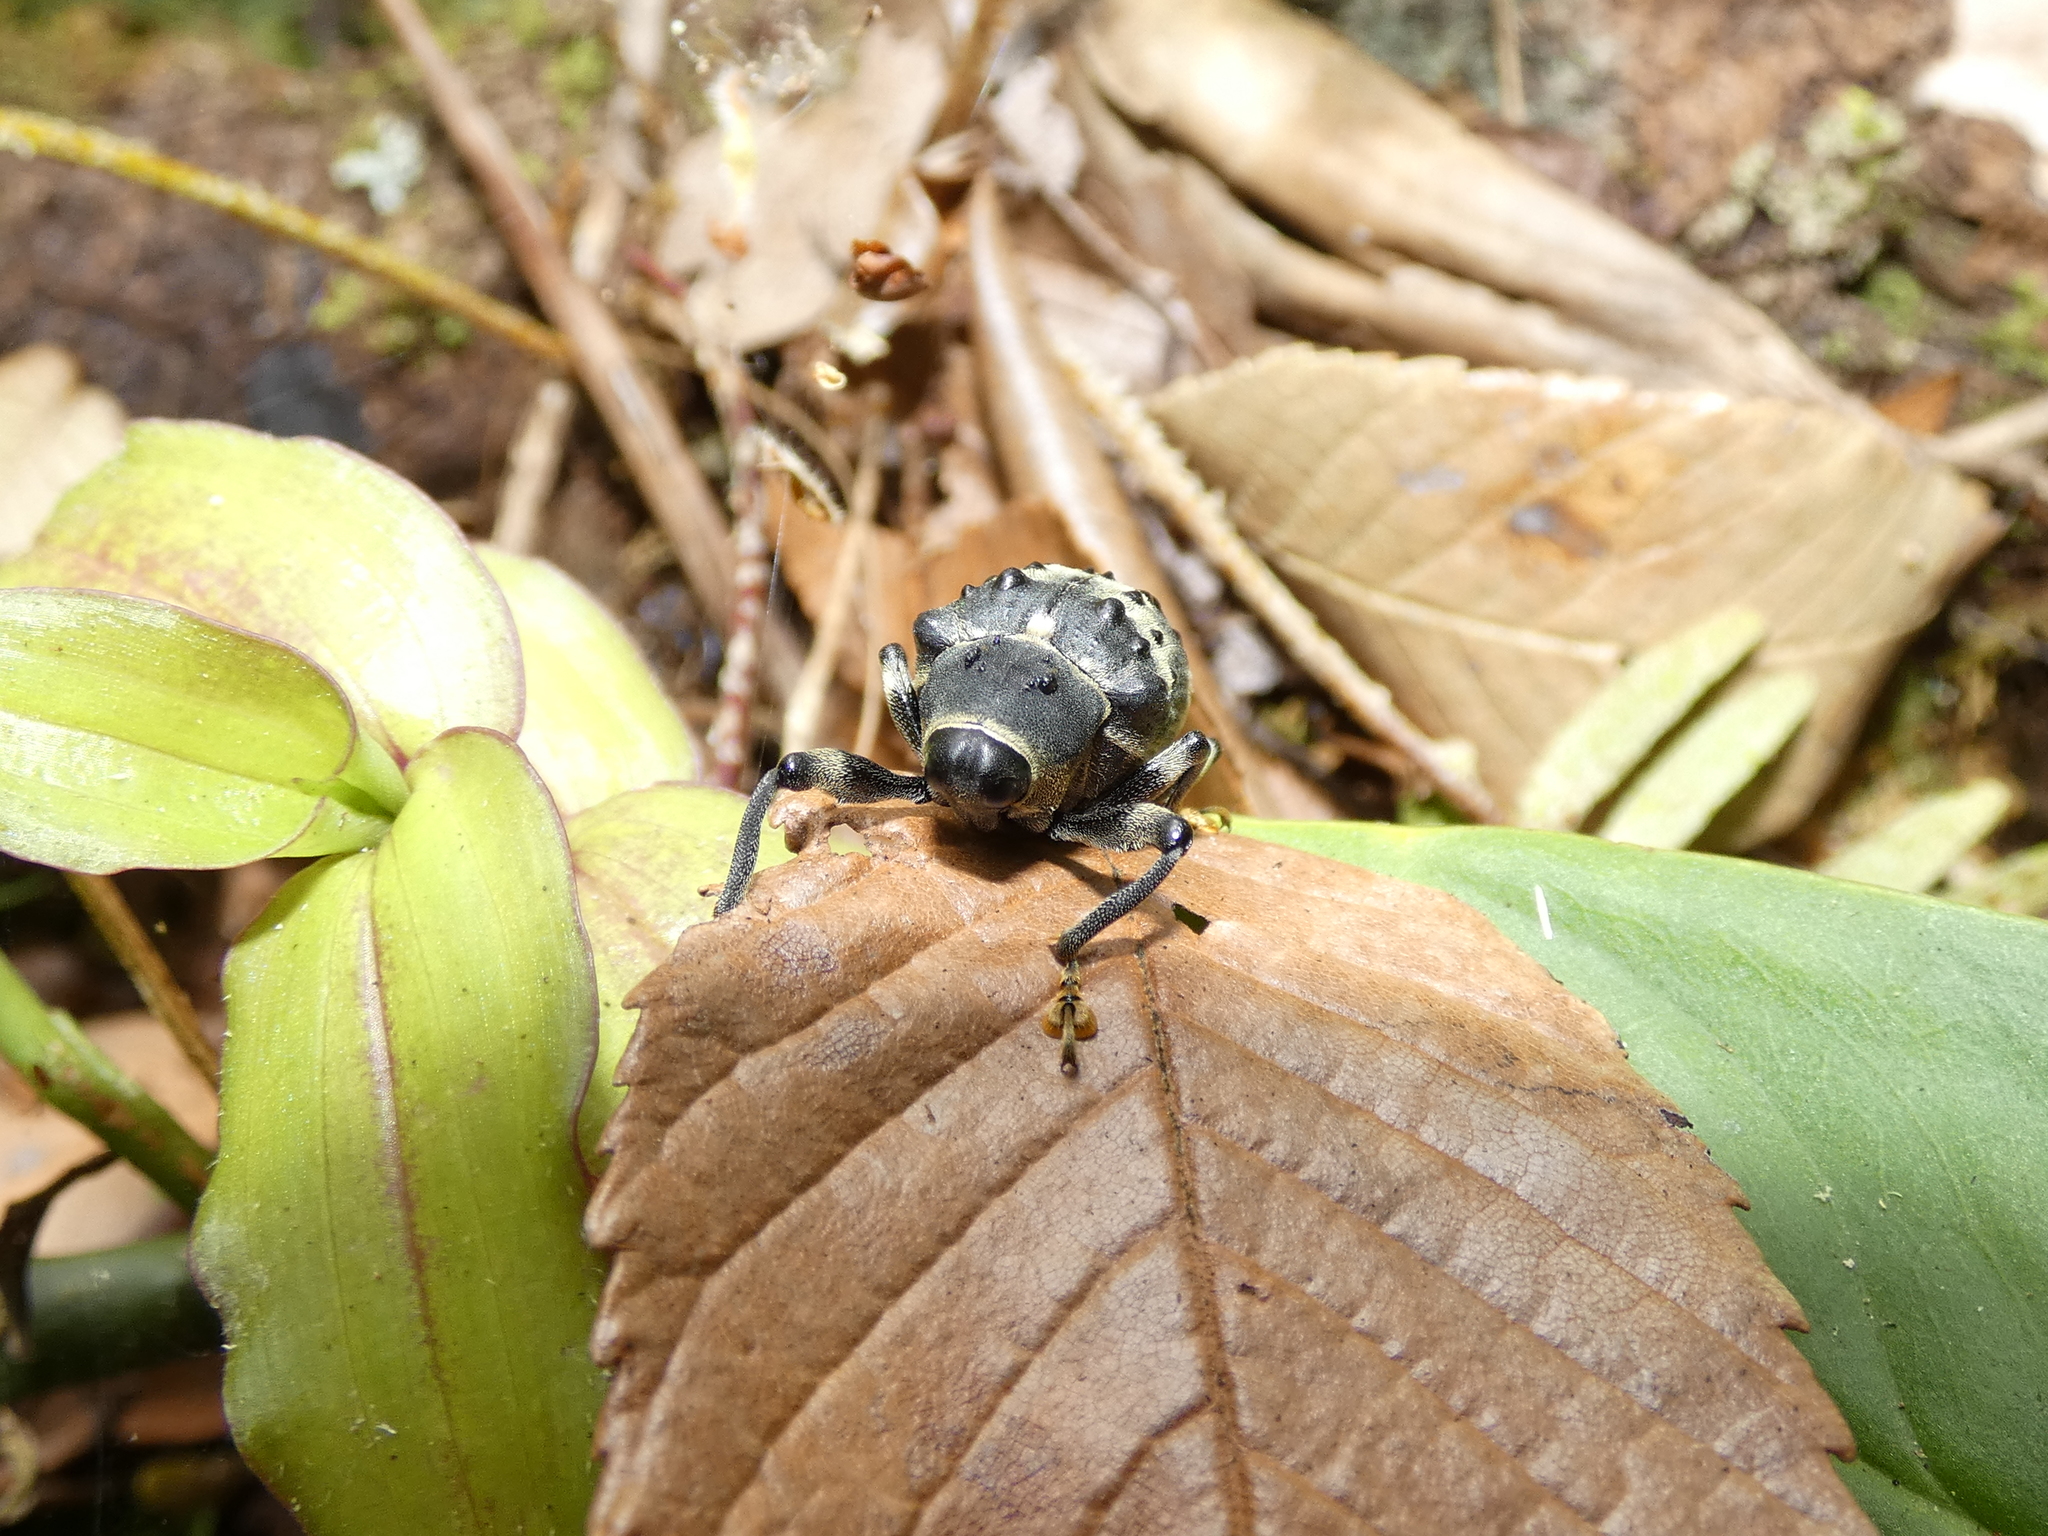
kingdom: Animalia
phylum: Arthropoda
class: Insecta
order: Coleoptera
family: Curculionidae
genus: Cratosomus
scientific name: Cratosomus annulipes
